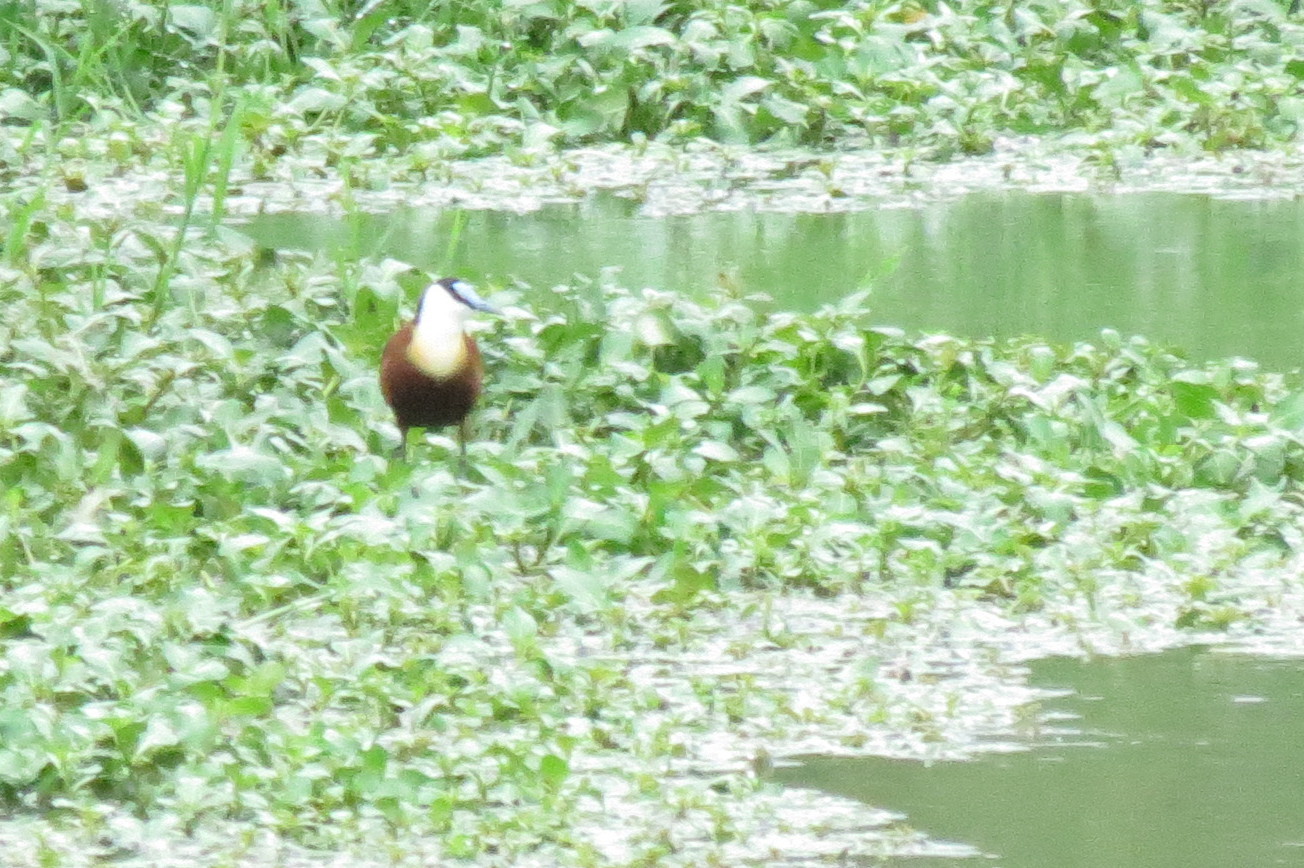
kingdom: Animalia
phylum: Chordata
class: Aves
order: Charadriiformes
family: Jacanidae
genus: Actophilornis
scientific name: Actophilornis africanus
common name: African jacana
